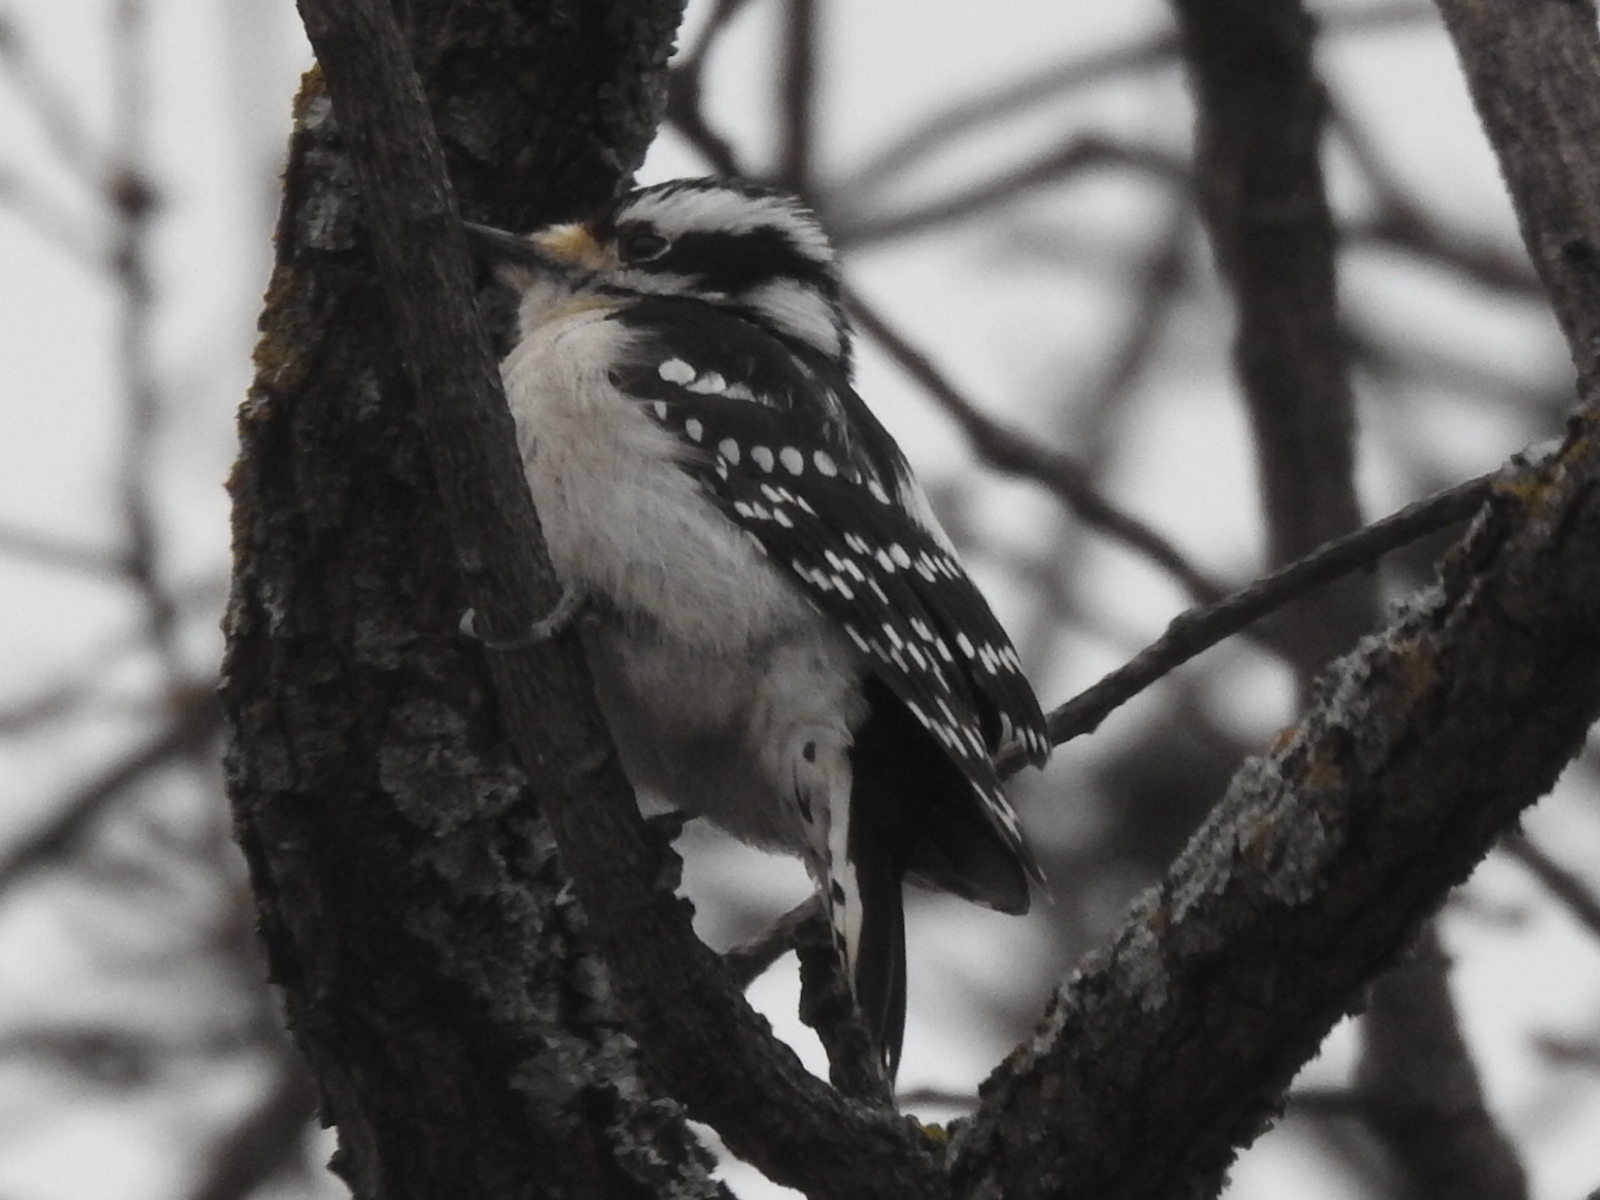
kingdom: Animalia
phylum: Chordata
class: Aves
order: Piciformes
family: Picidae
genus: Dryobates
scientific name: Dryobates pubescens
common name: Downy woodpecker
